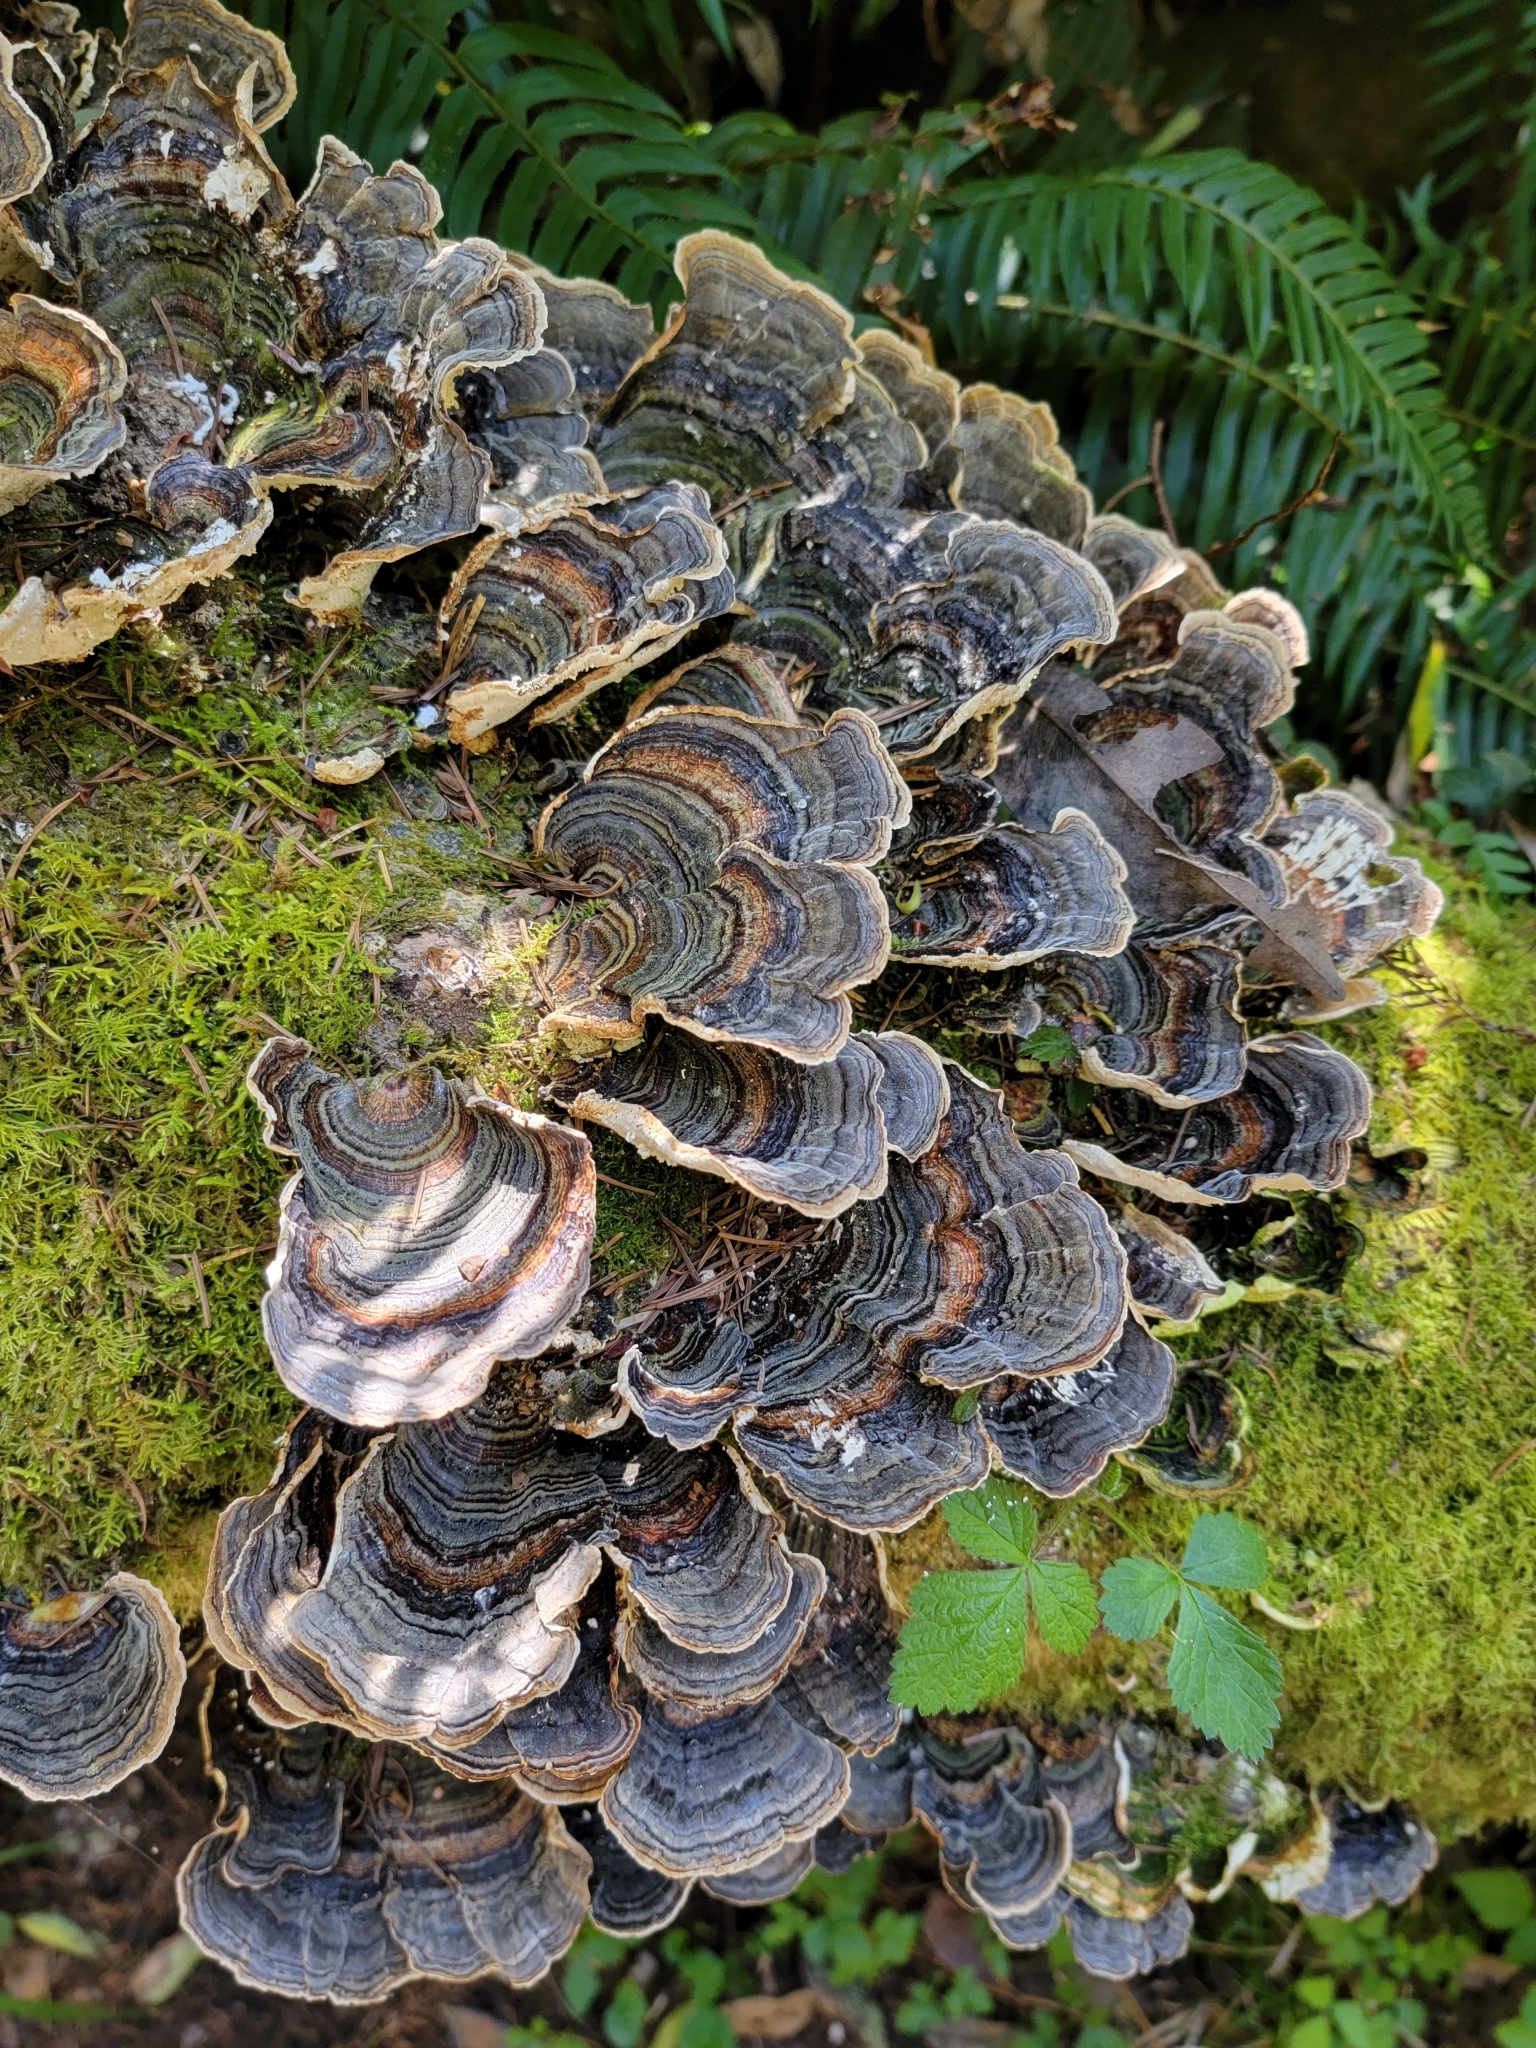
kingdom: Fungi
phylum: Basidiomycota
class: Agaricomycetes
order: Polyporales
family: Polyporaceae
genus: Trametes
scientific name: Trametes versicolor
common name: Turkeytail
